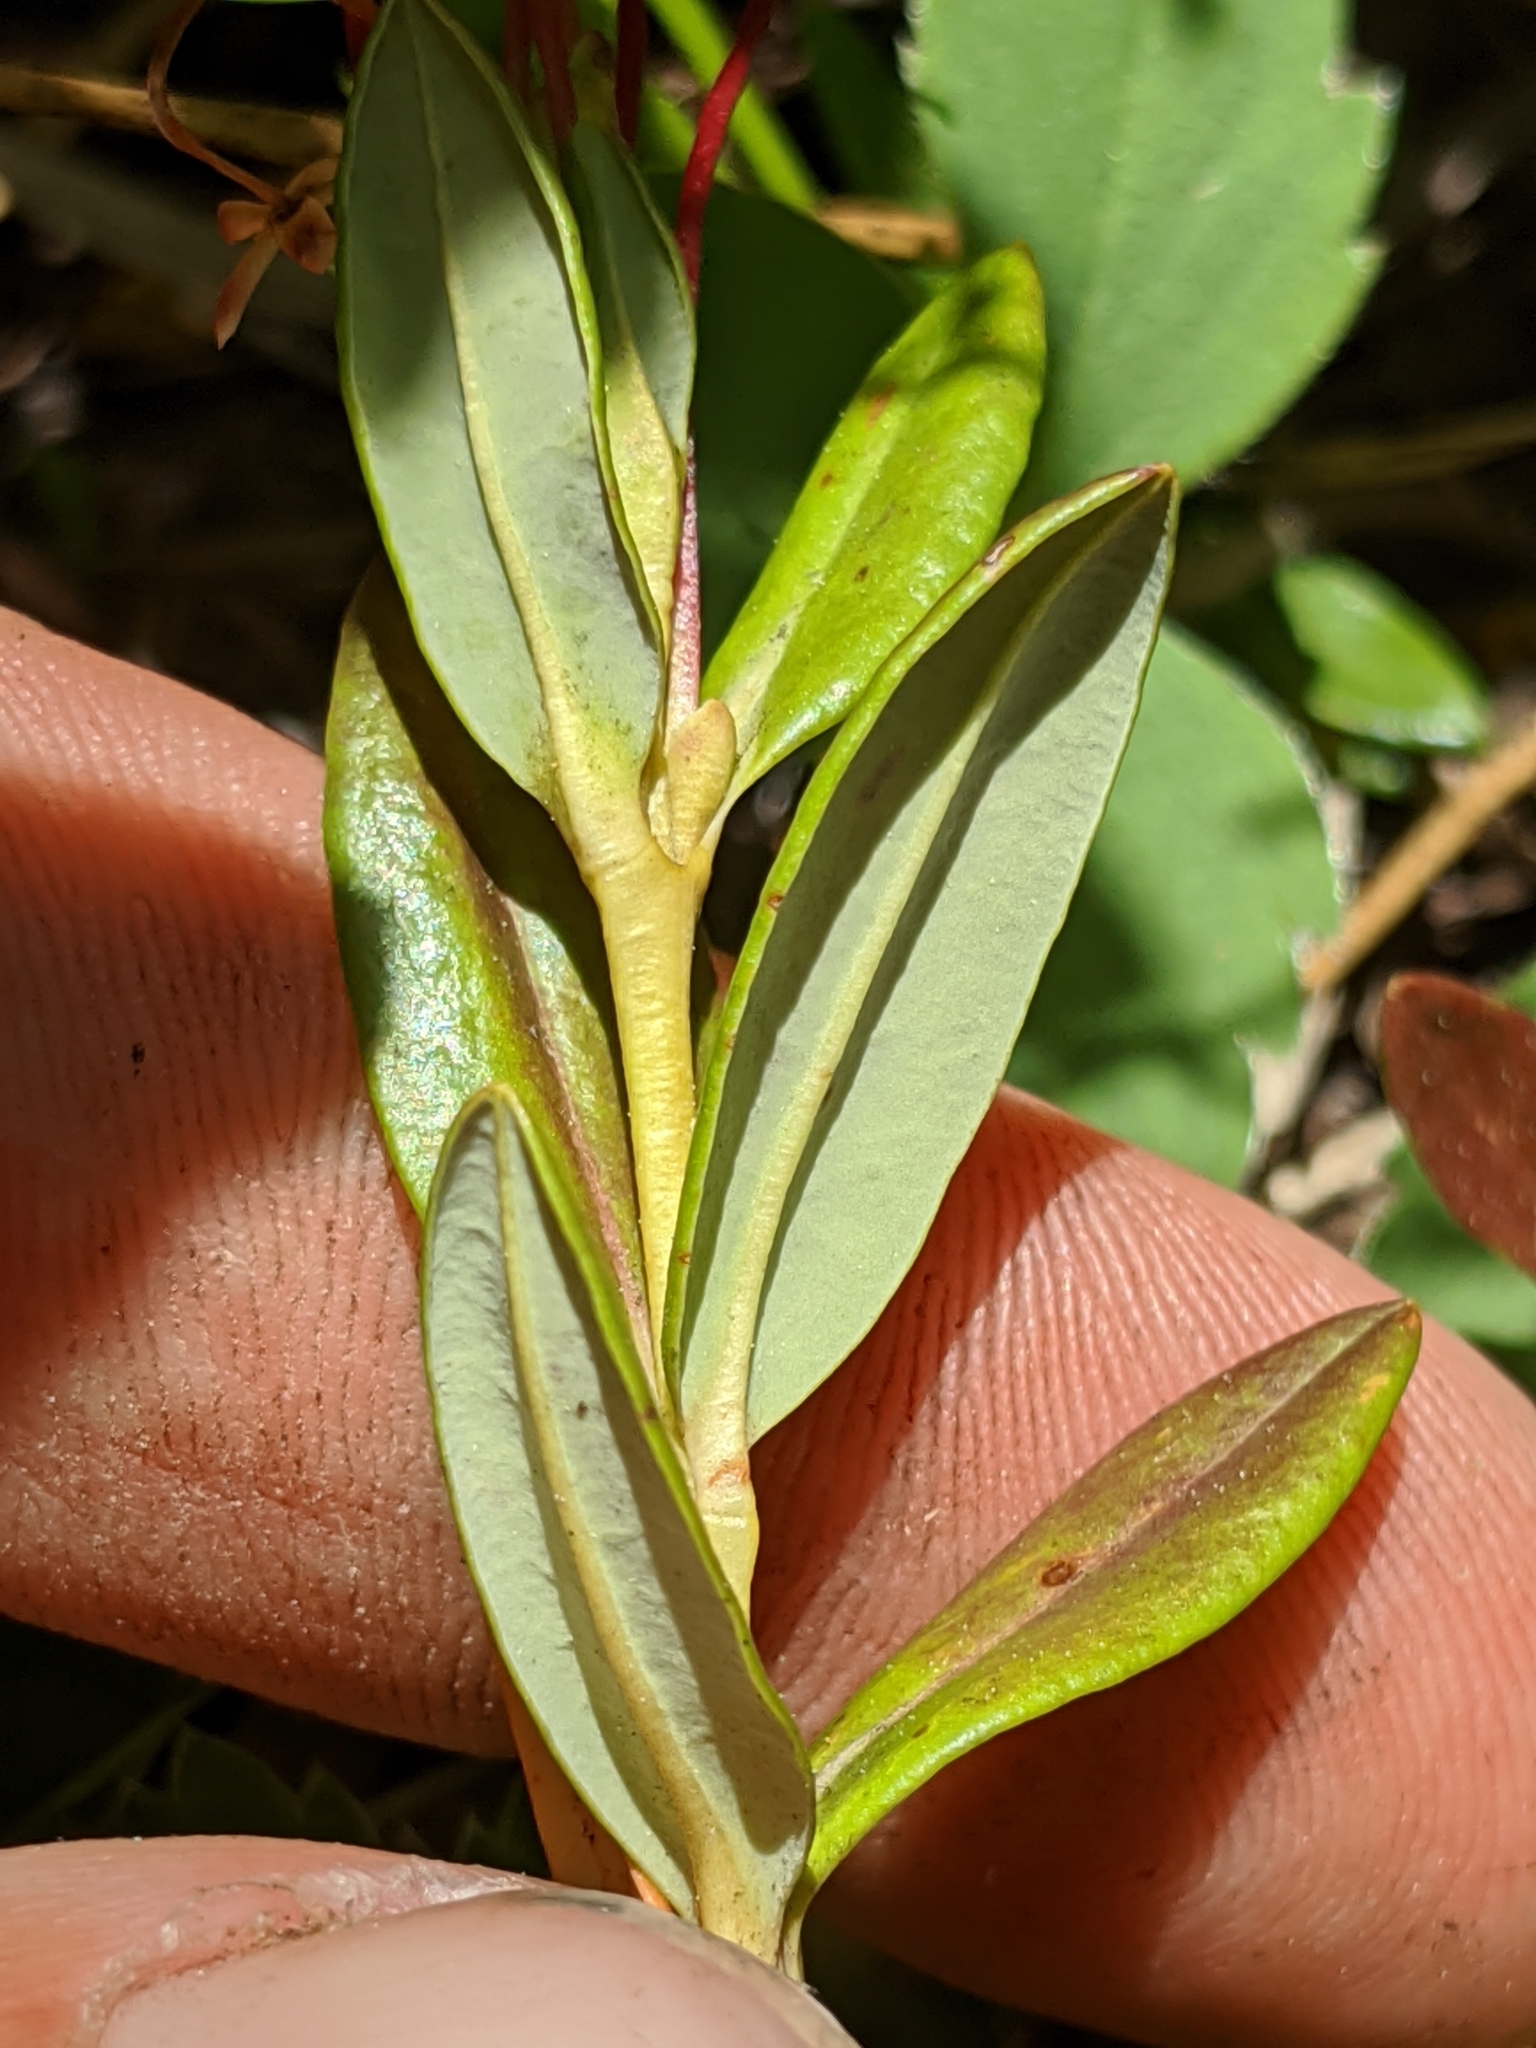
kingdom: Plantae
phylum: Tracheophyta
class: Magnoliopsida
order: Ericales
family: Ericaceae
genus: Kalmia
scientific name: Kalmia microphylla
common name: Alpine bog laurel
